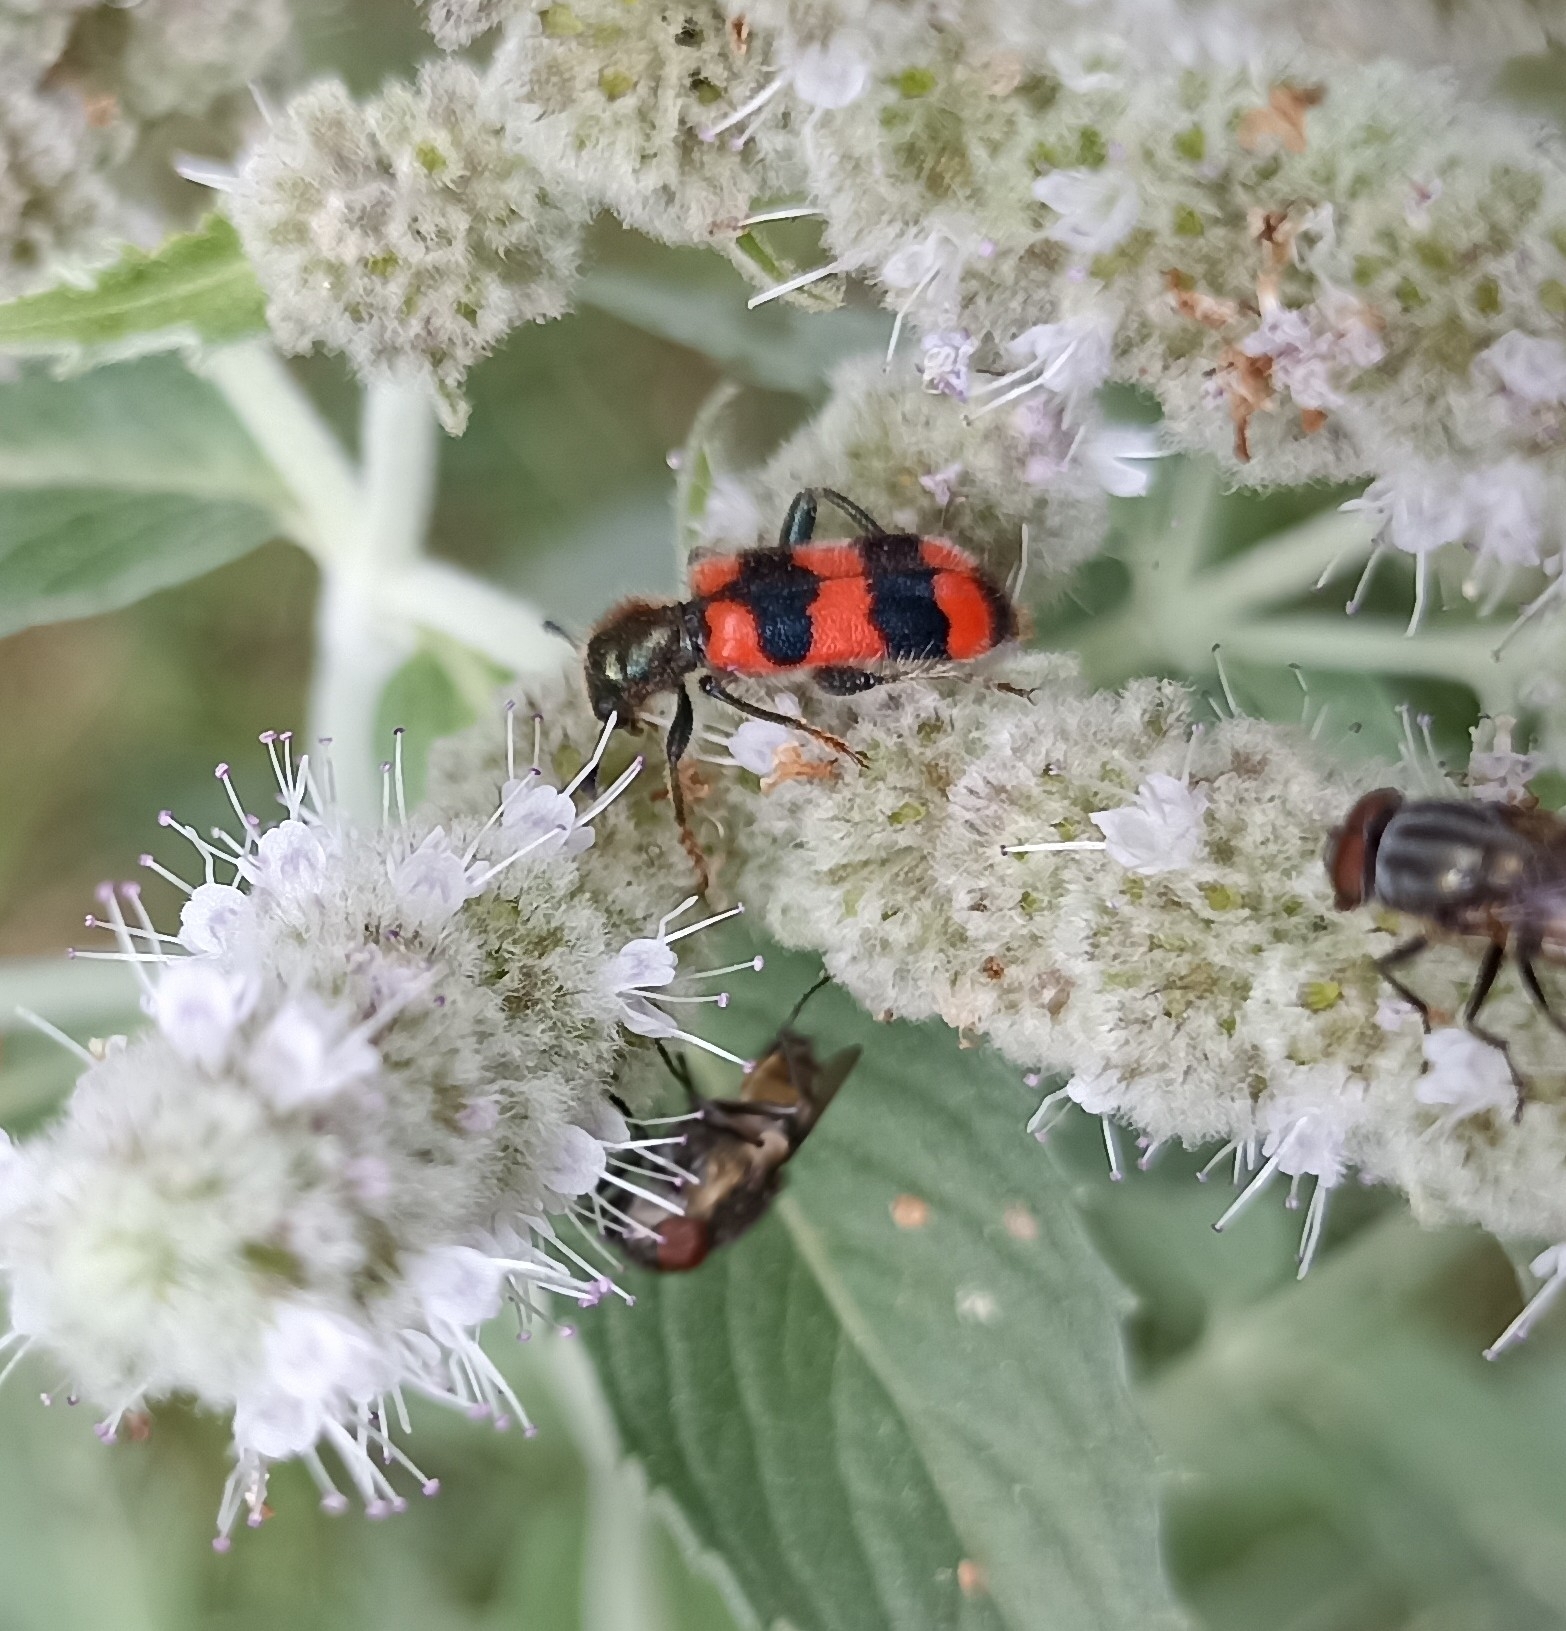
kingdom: Animalia
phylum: Arthropoda
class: Insecta
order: Coleoptera
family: Cleridae
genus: Trichodes
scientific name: Trichodes apiarius
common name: Bee-eating beetle
